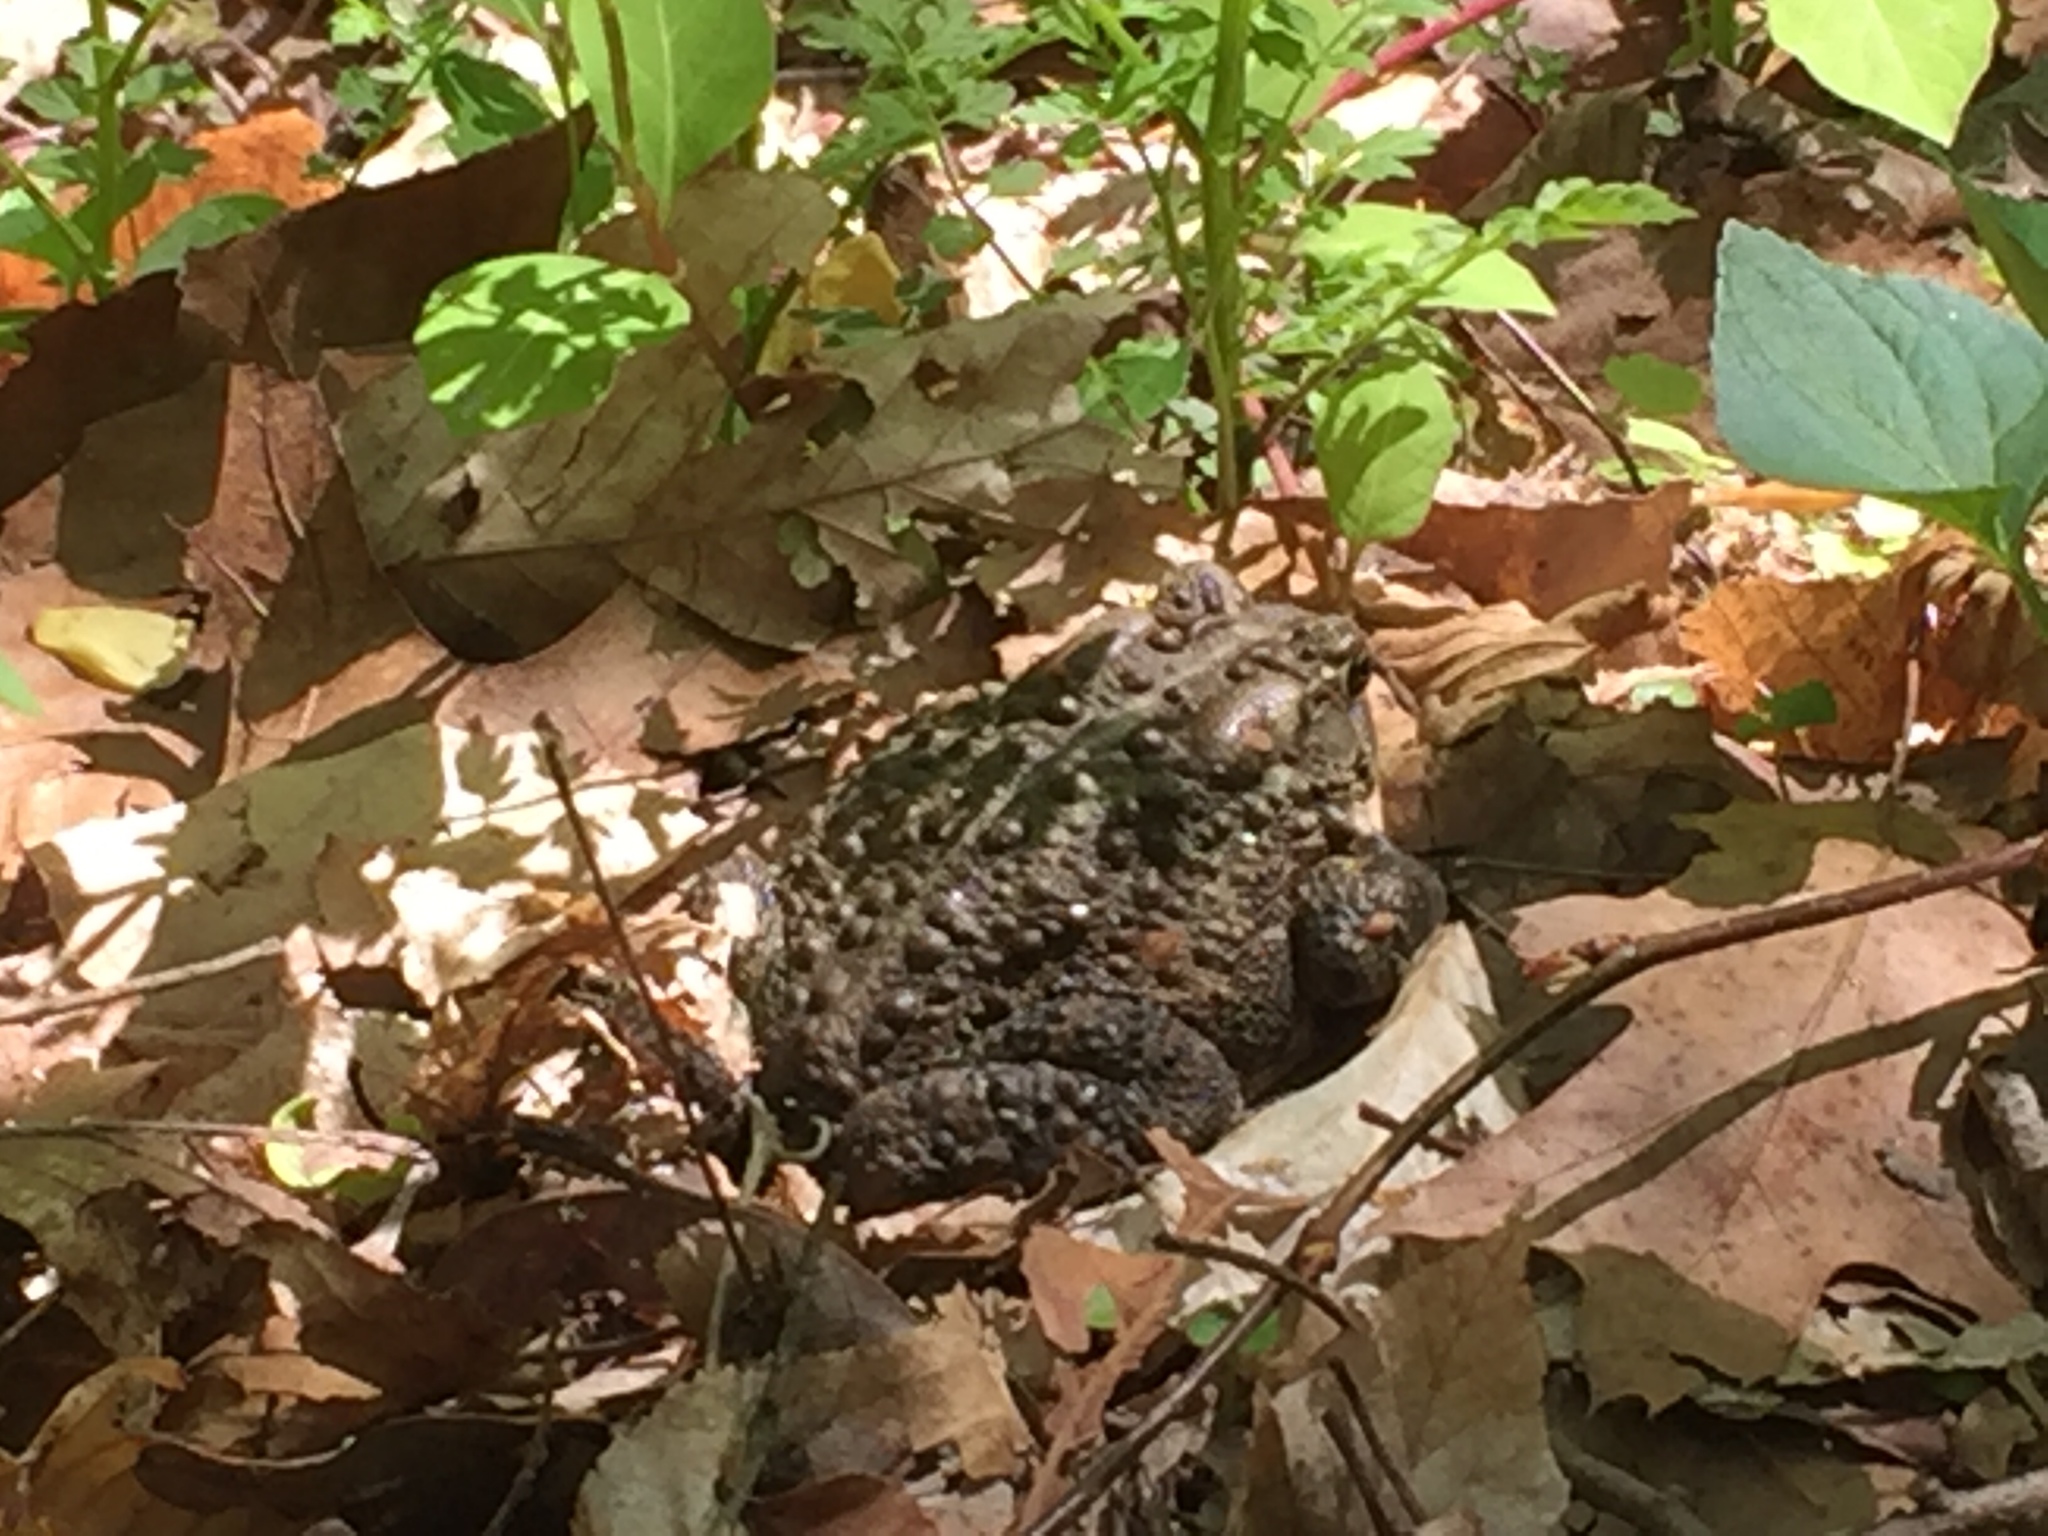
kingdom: Animalia
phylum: Chordata
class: Amphibia
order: Anura
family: Bufonidae
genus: Anaxyrus
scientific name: Anaxyrus americanus
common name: American toad
